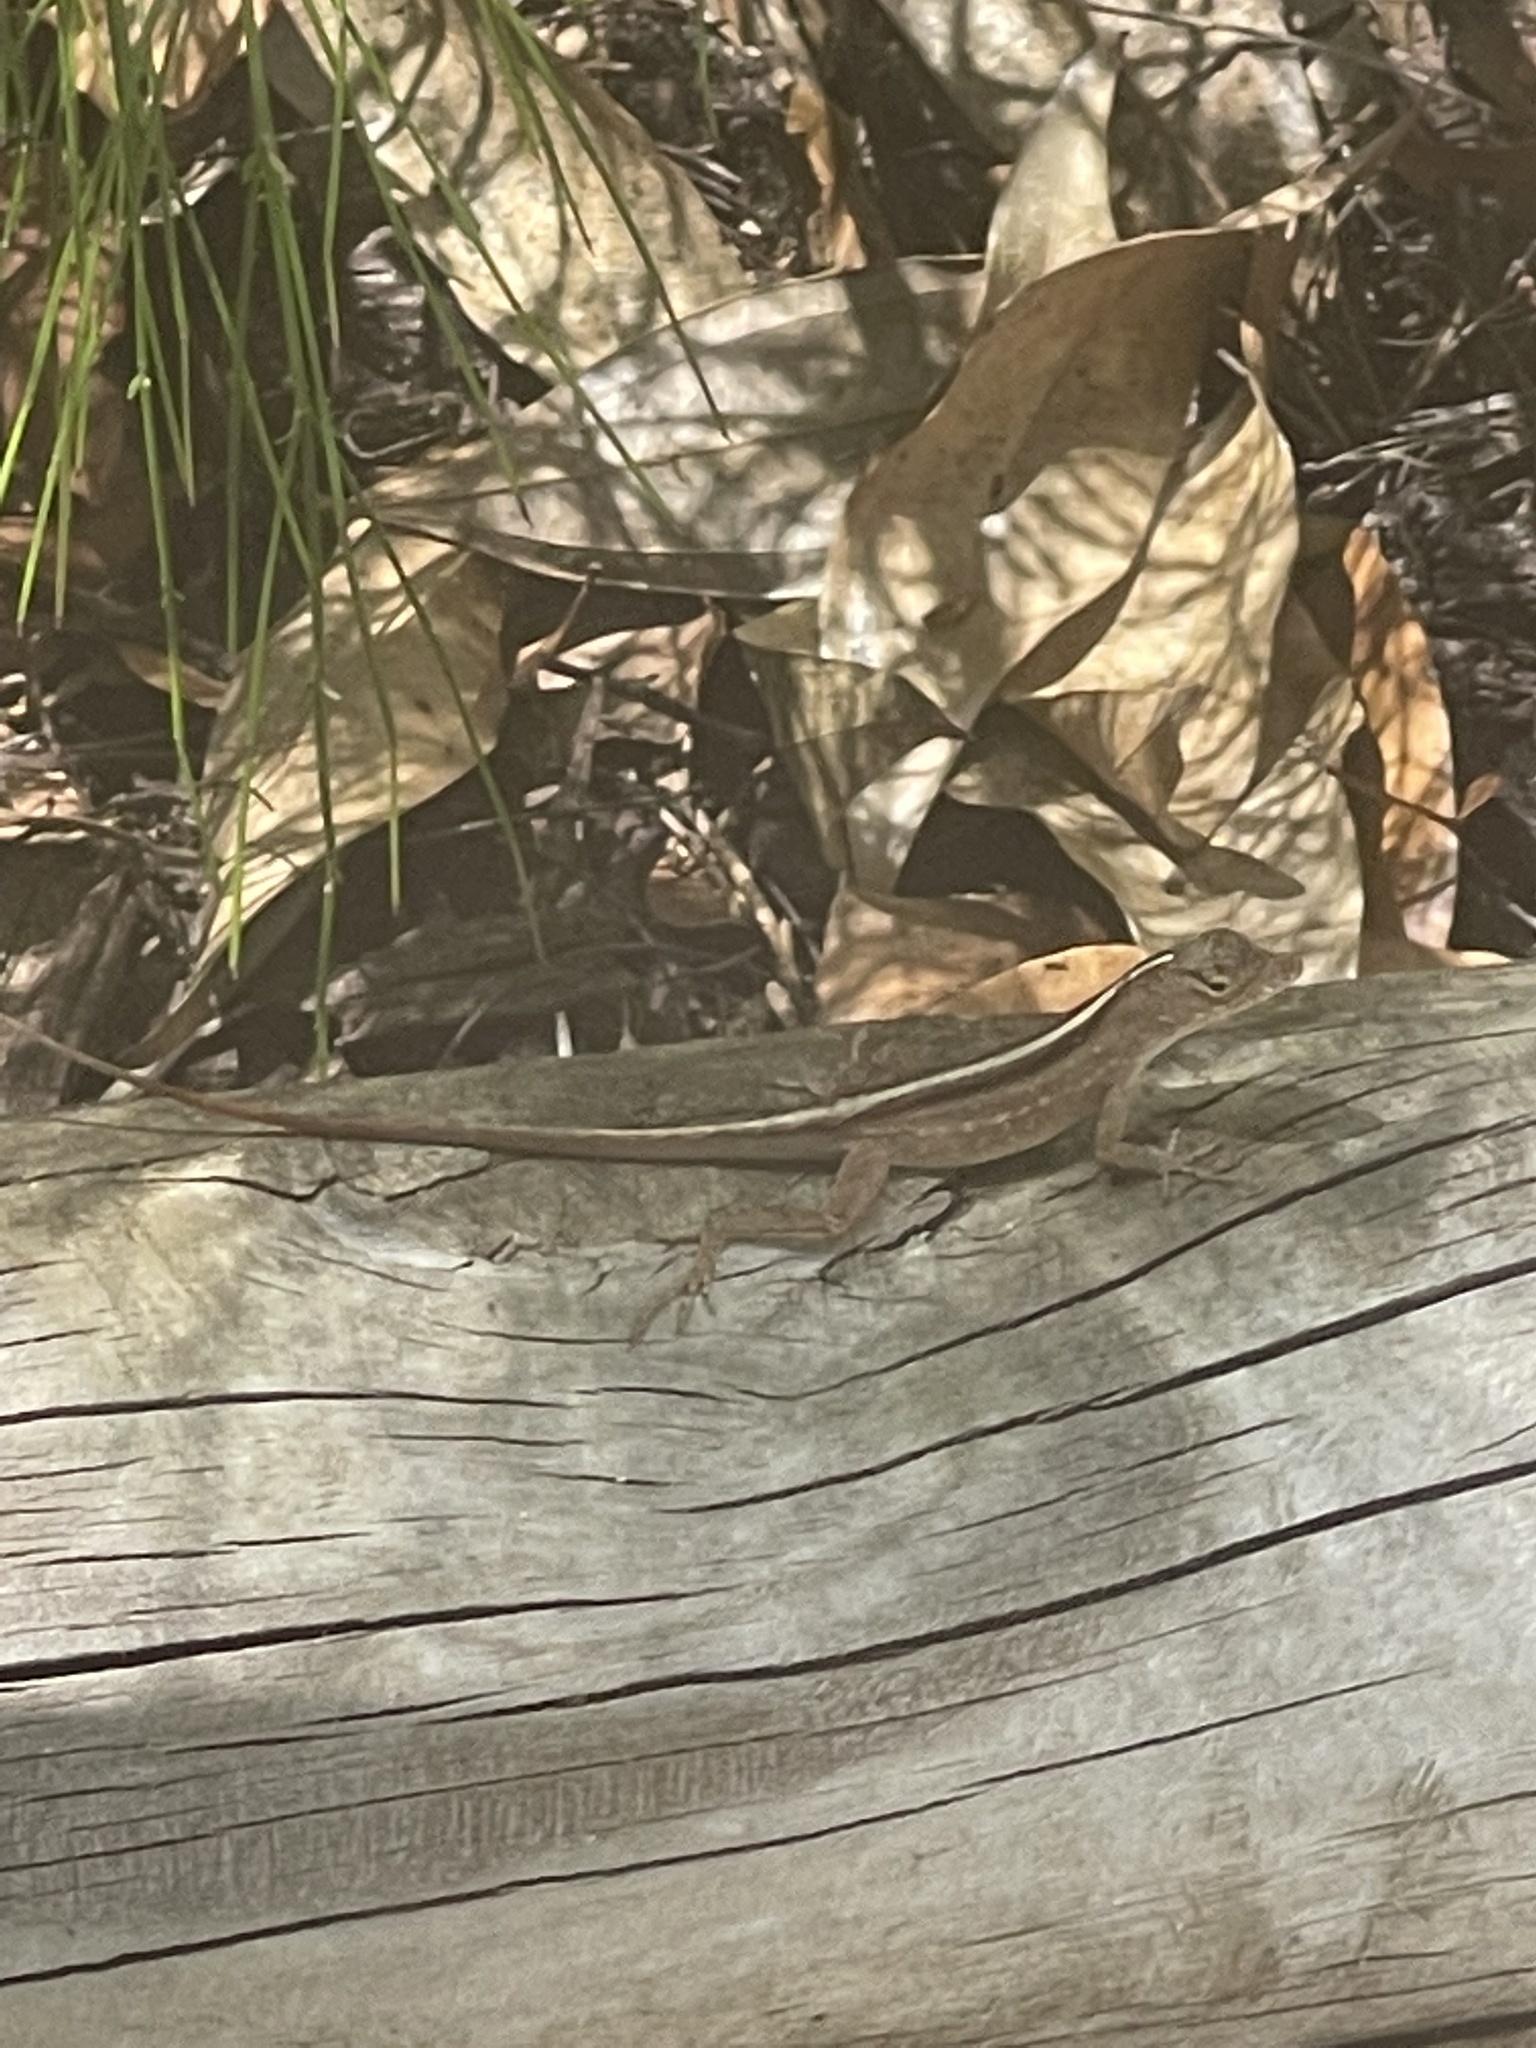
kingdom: Animalia
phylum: Chordata
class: Squamata
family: Dactyloidae
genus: Anolis
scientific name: Anolis sagrei
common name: Brown anole
